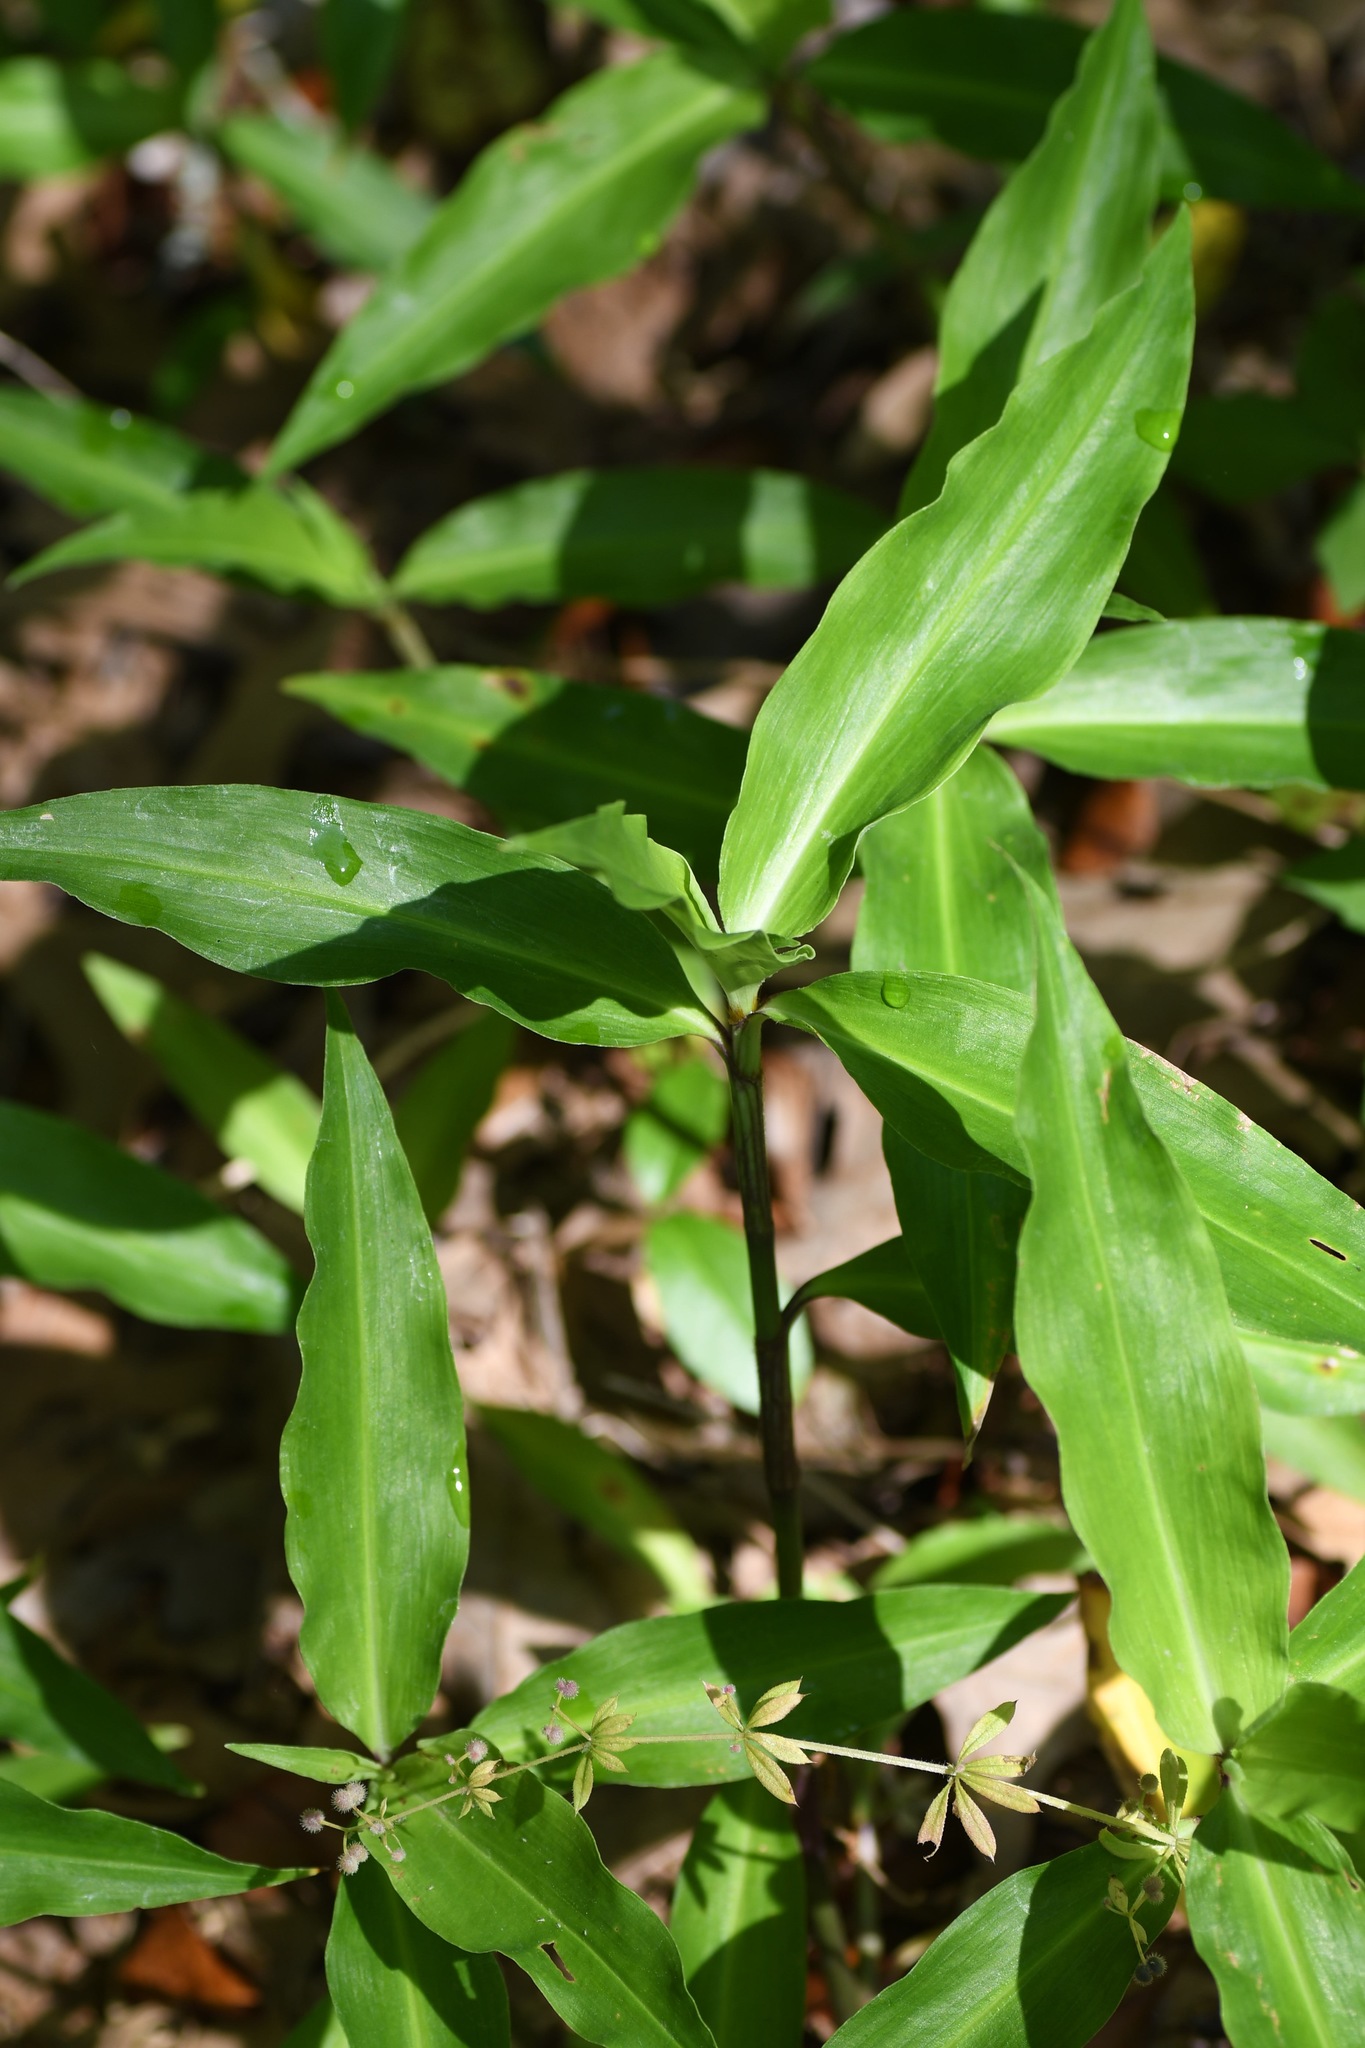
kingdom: Plantae
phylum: Tracheophyta
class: Liliopsida
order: Commelinales
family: Commelinaceae
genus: Commelina
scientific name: Commelina virginica
